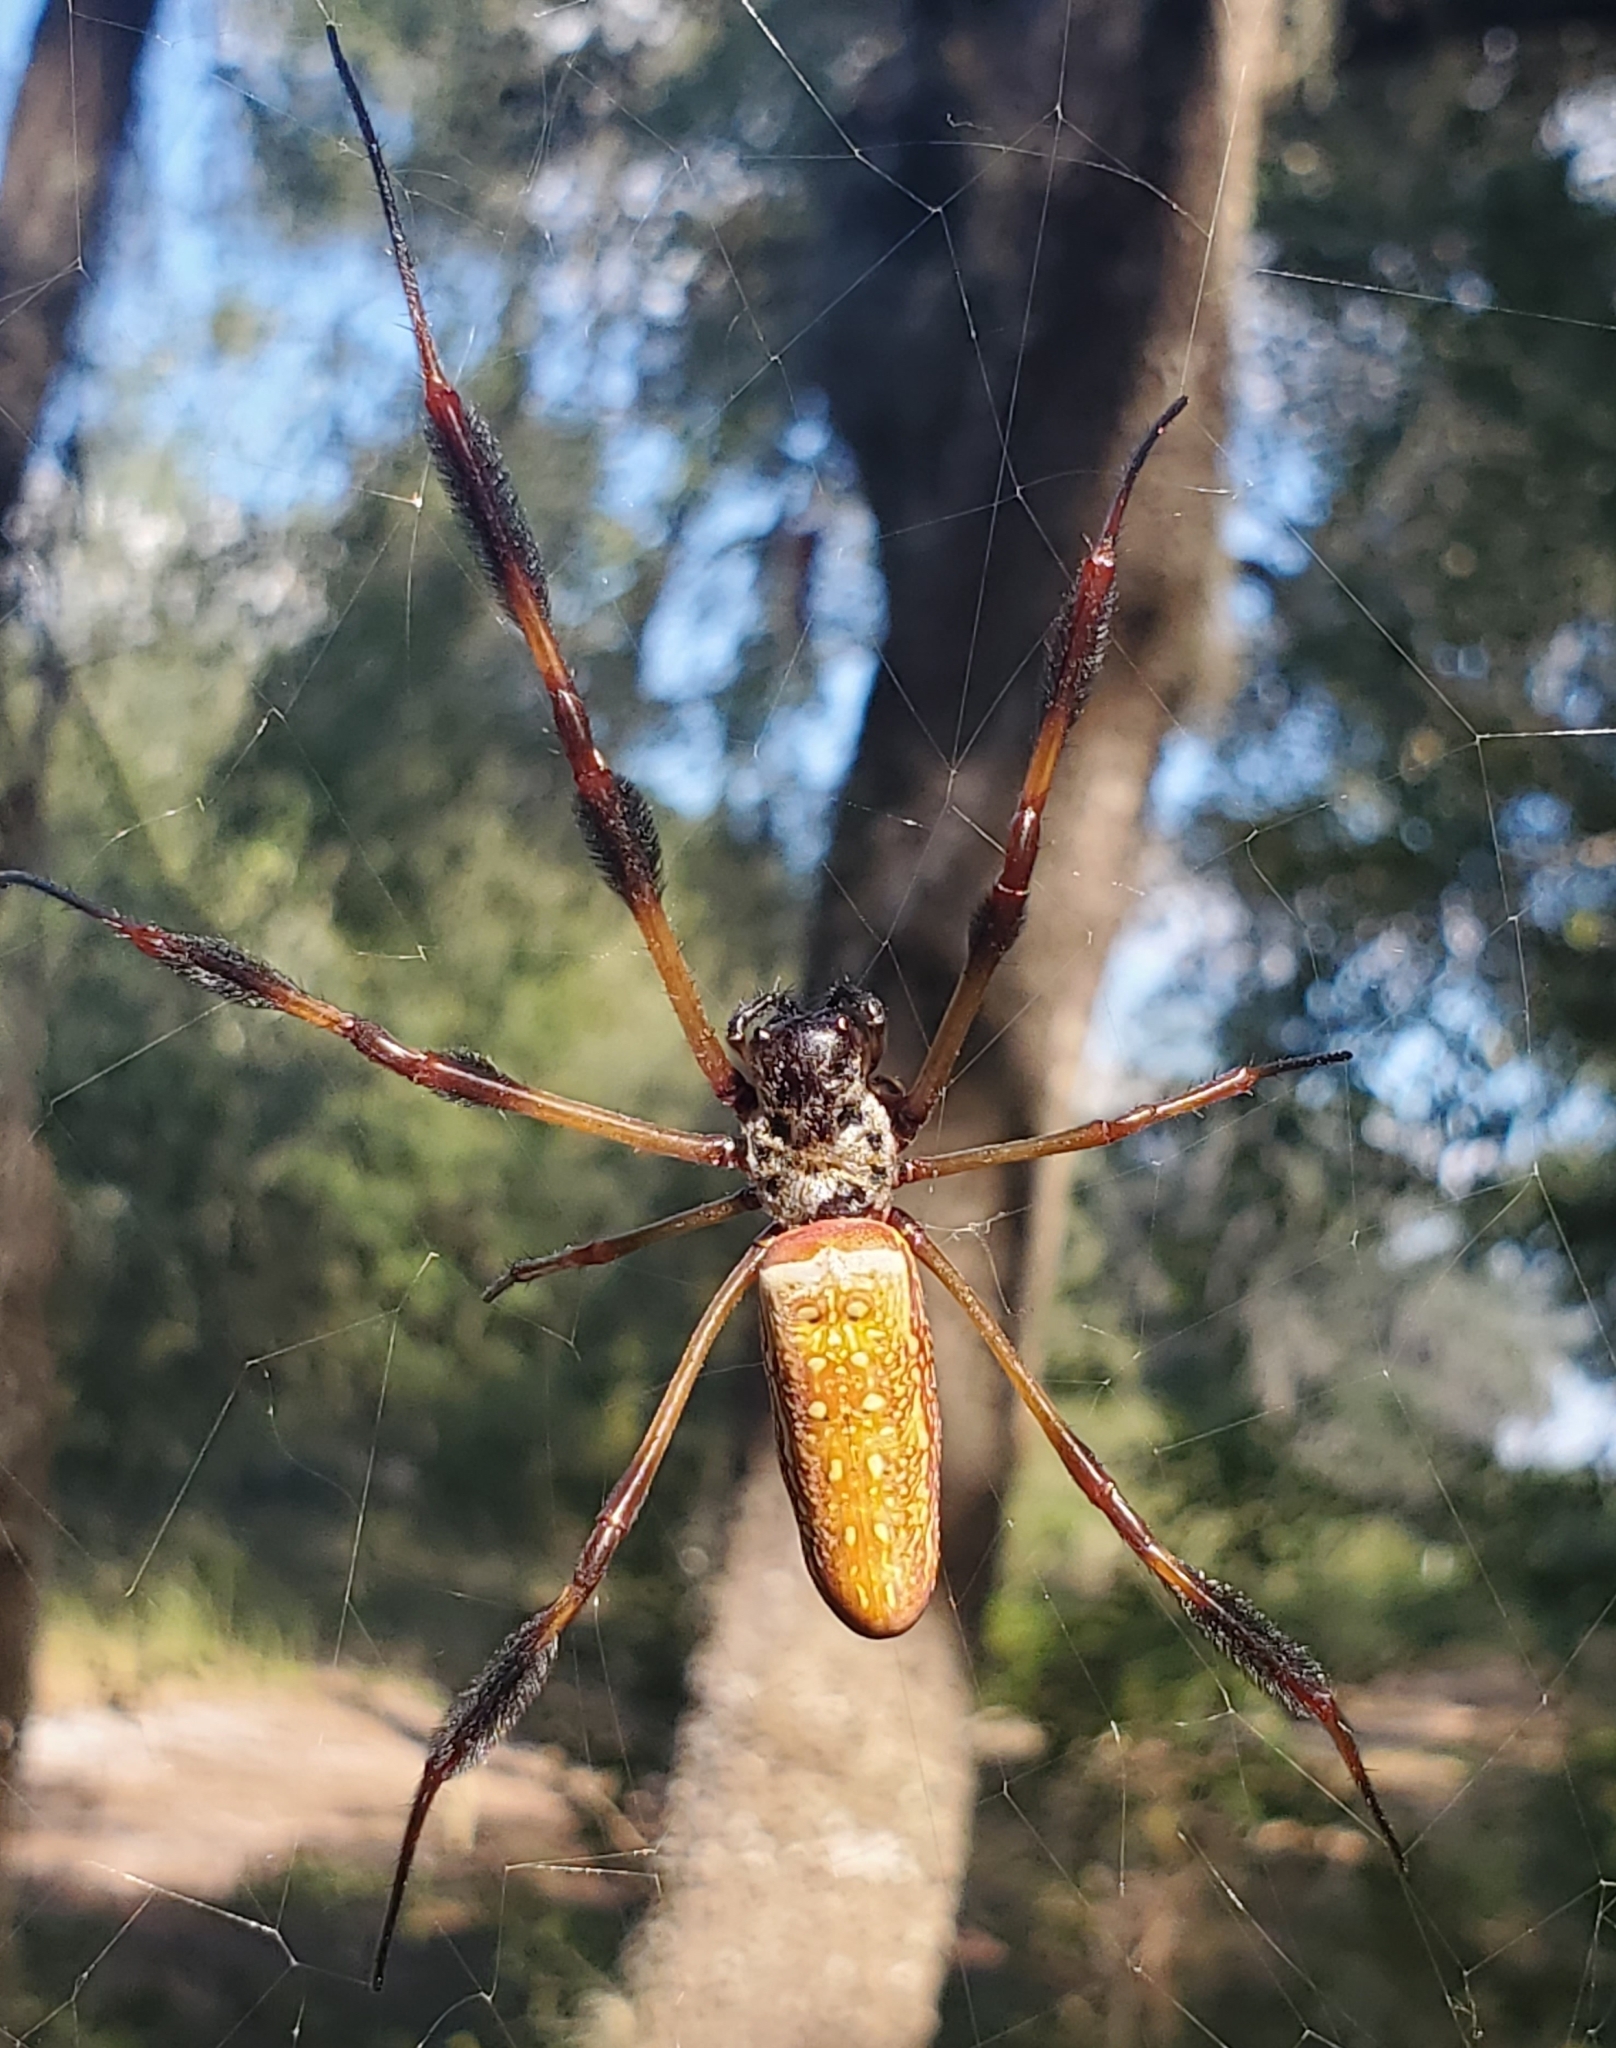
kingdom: Animalia
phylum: Arthropoda
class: Arachnida
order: Araneae
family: Araneidae
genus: Trichonephila
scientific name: Trichonephila clavipes
